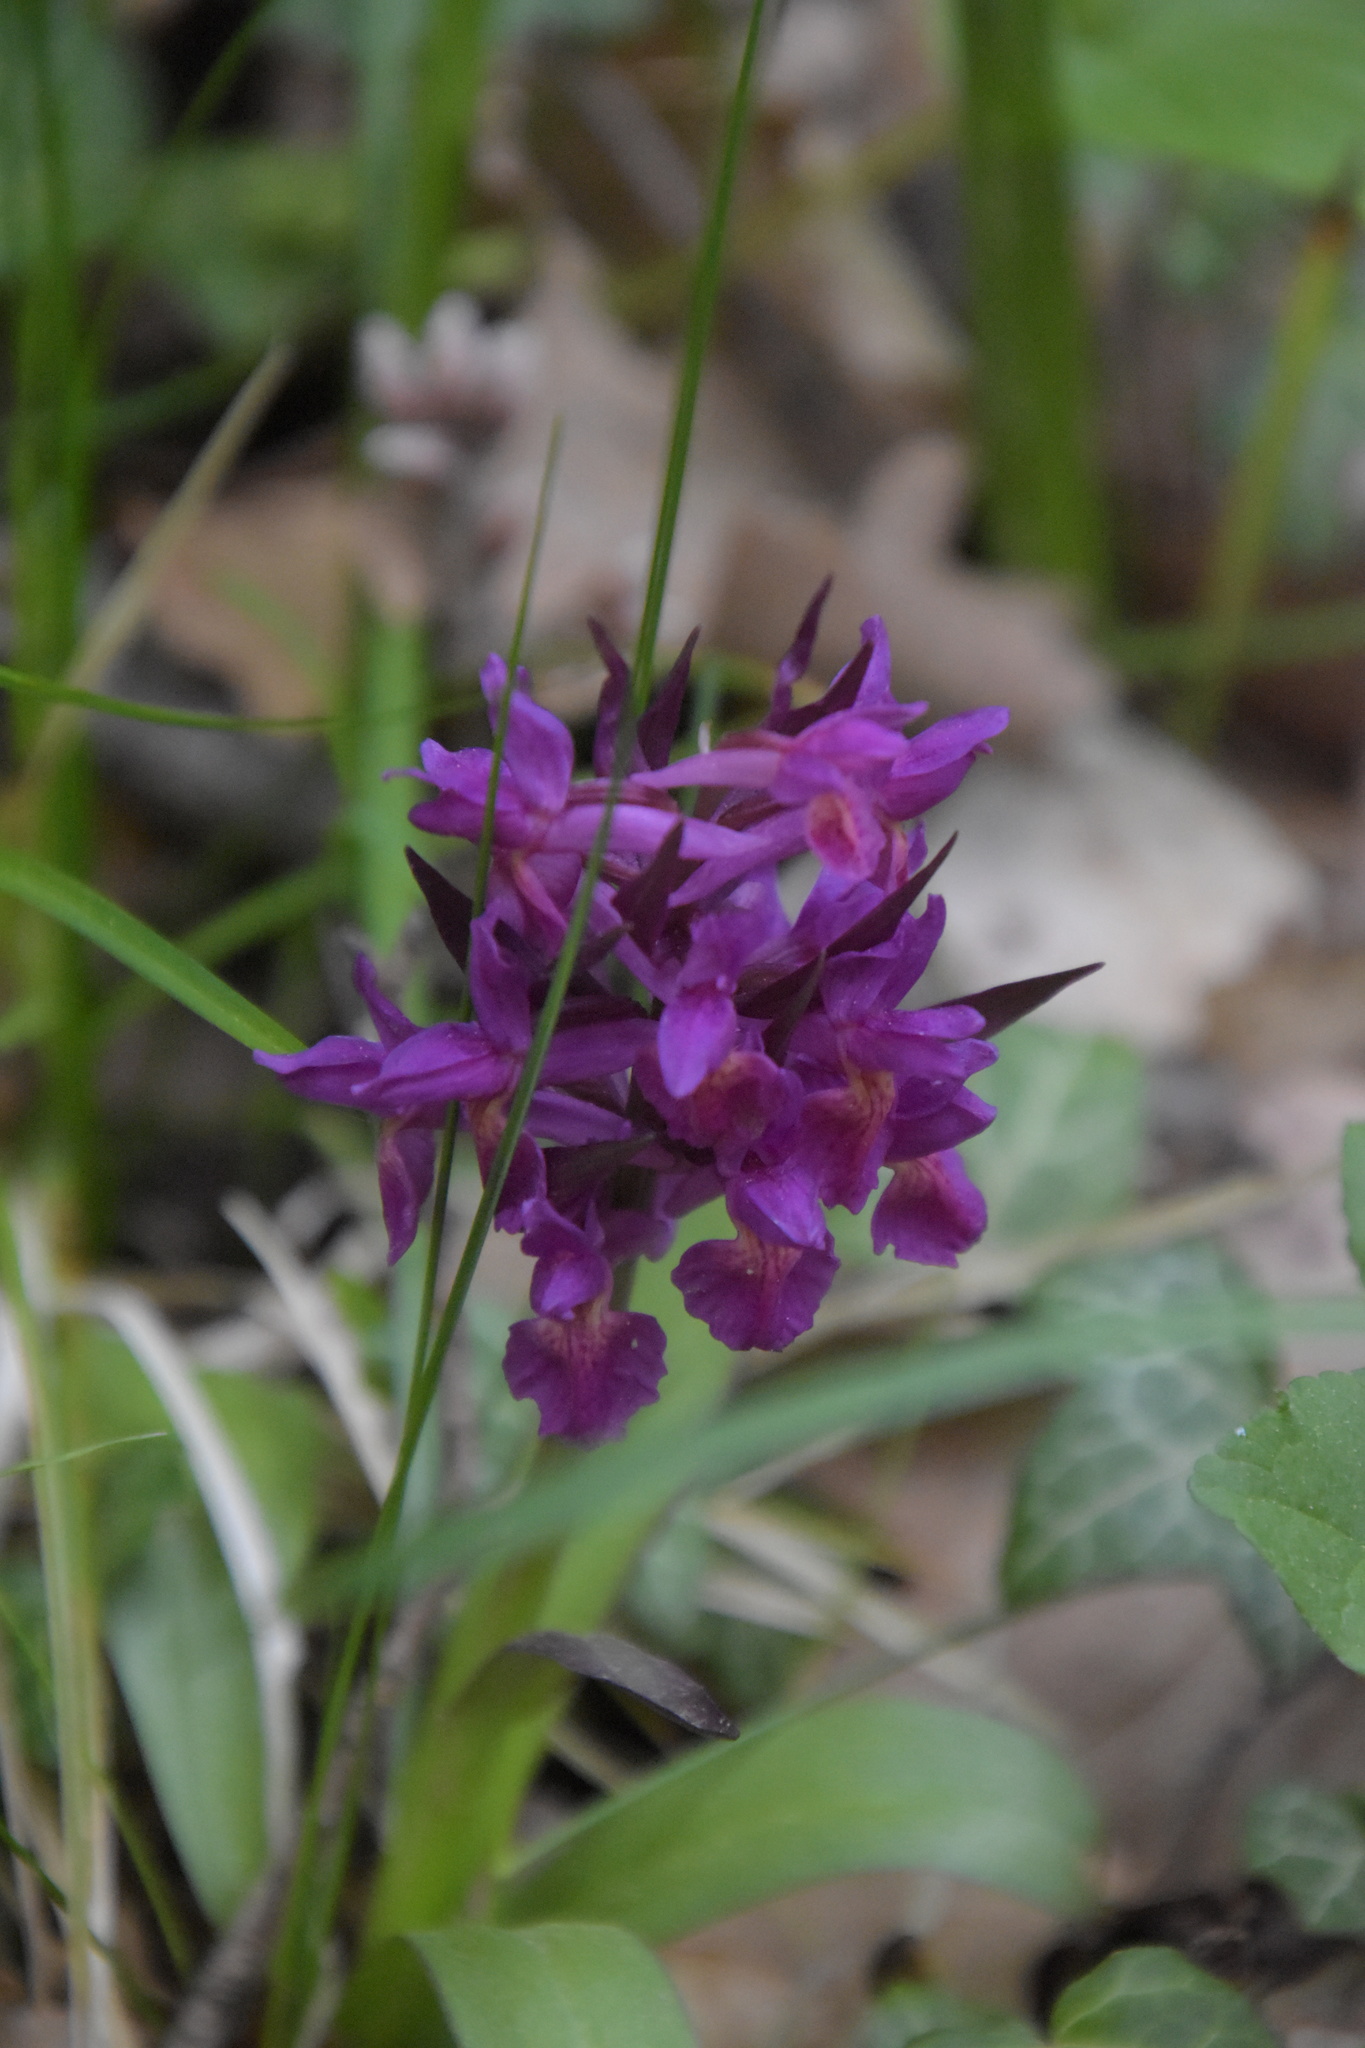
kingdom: Plantae
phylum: Tracheophyta
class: Liliopsida
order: Asparagales
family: Orchidaceae
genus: Dactylorhiza
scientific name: Dactylorhiza sambucina
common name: Elder-flowered orchid
